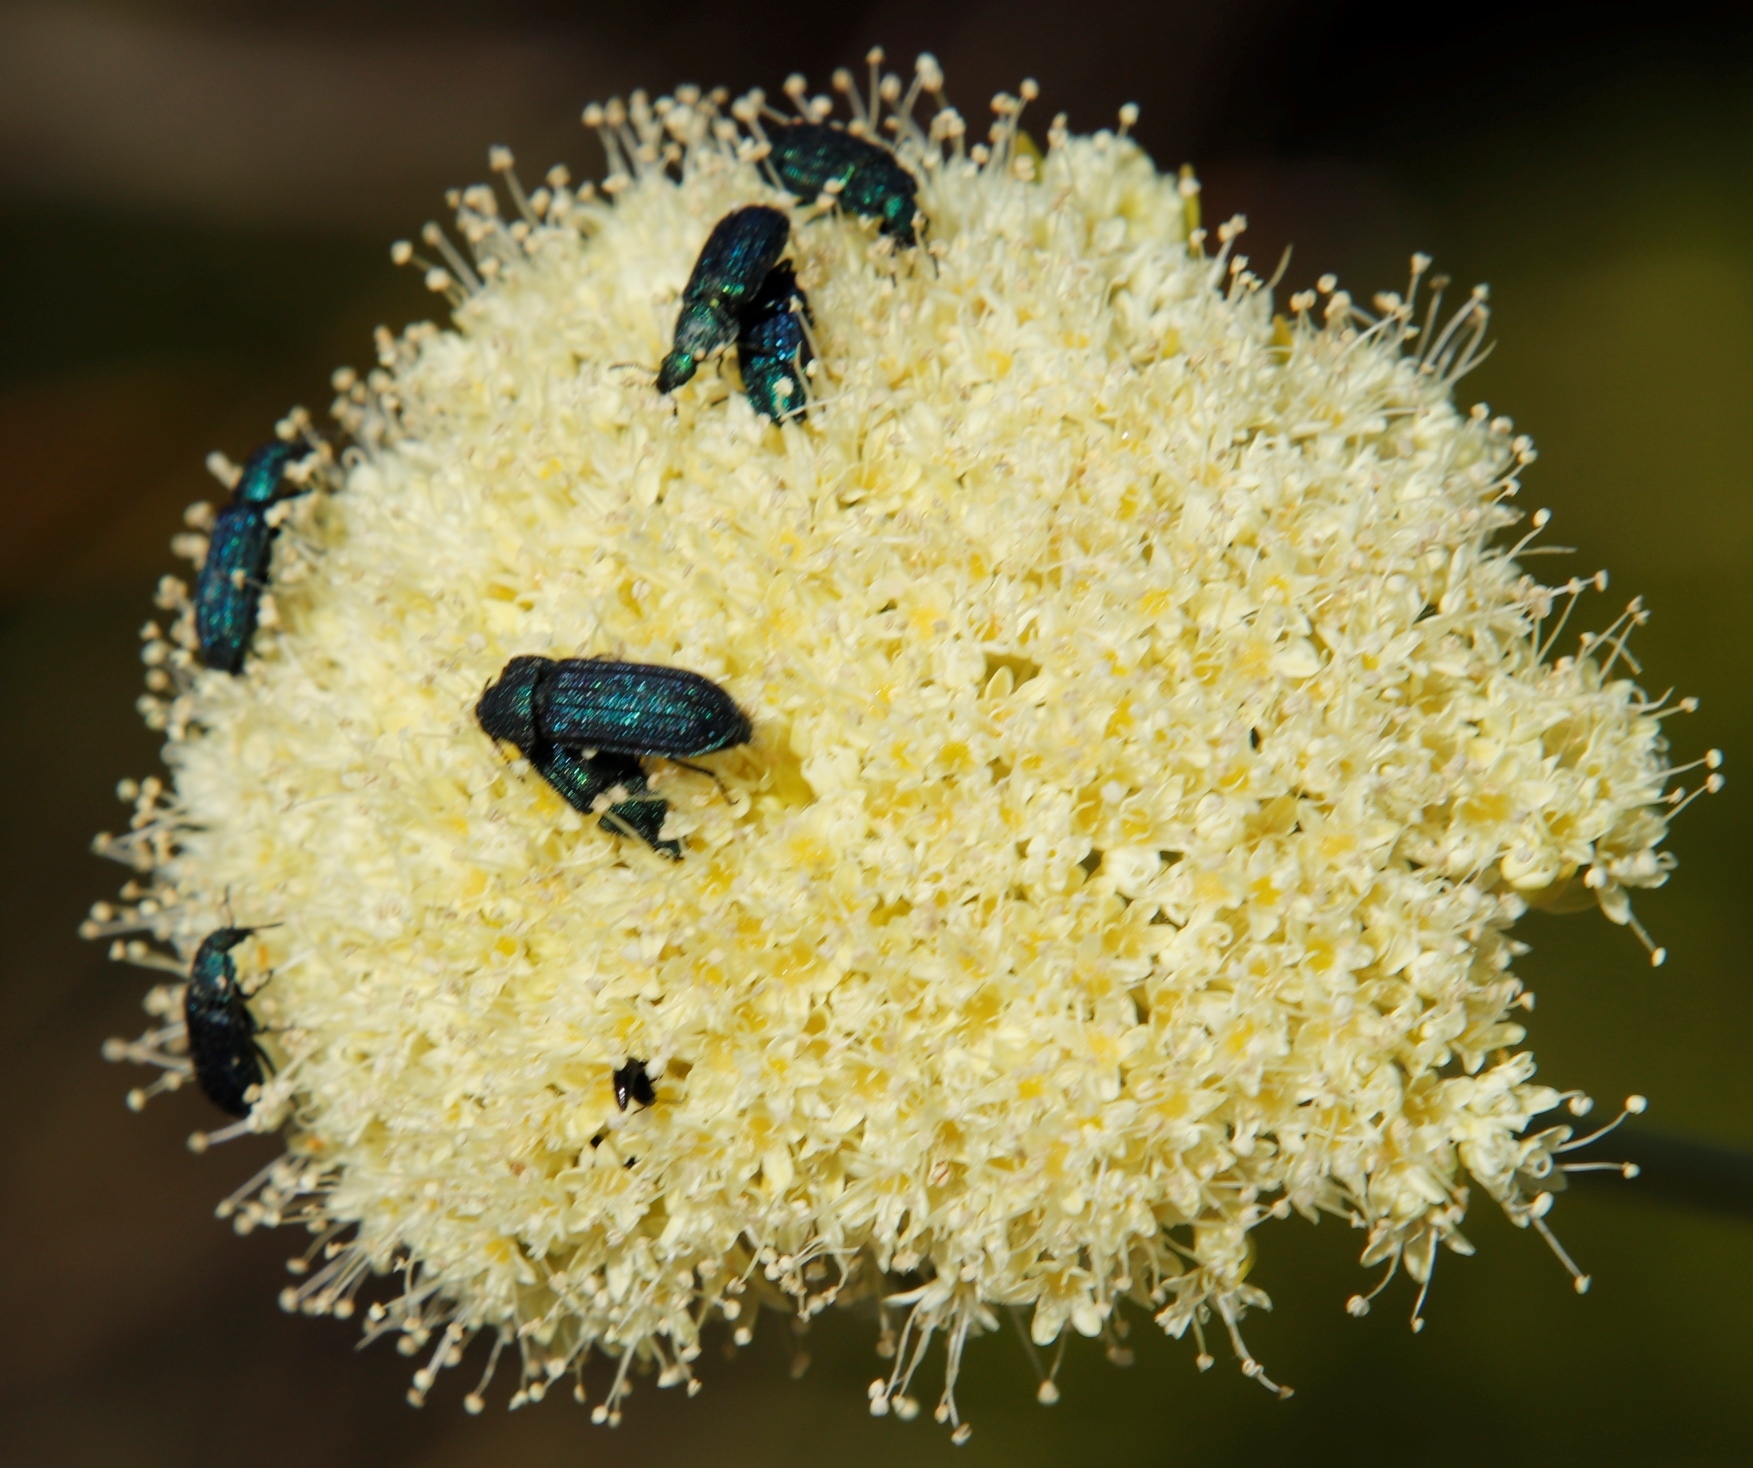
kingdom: Plantae
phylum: Tracheophyta
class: Magnoliopsida
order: Apiales
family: Apiaceae
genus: Hermas
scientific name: Hermas villosa
